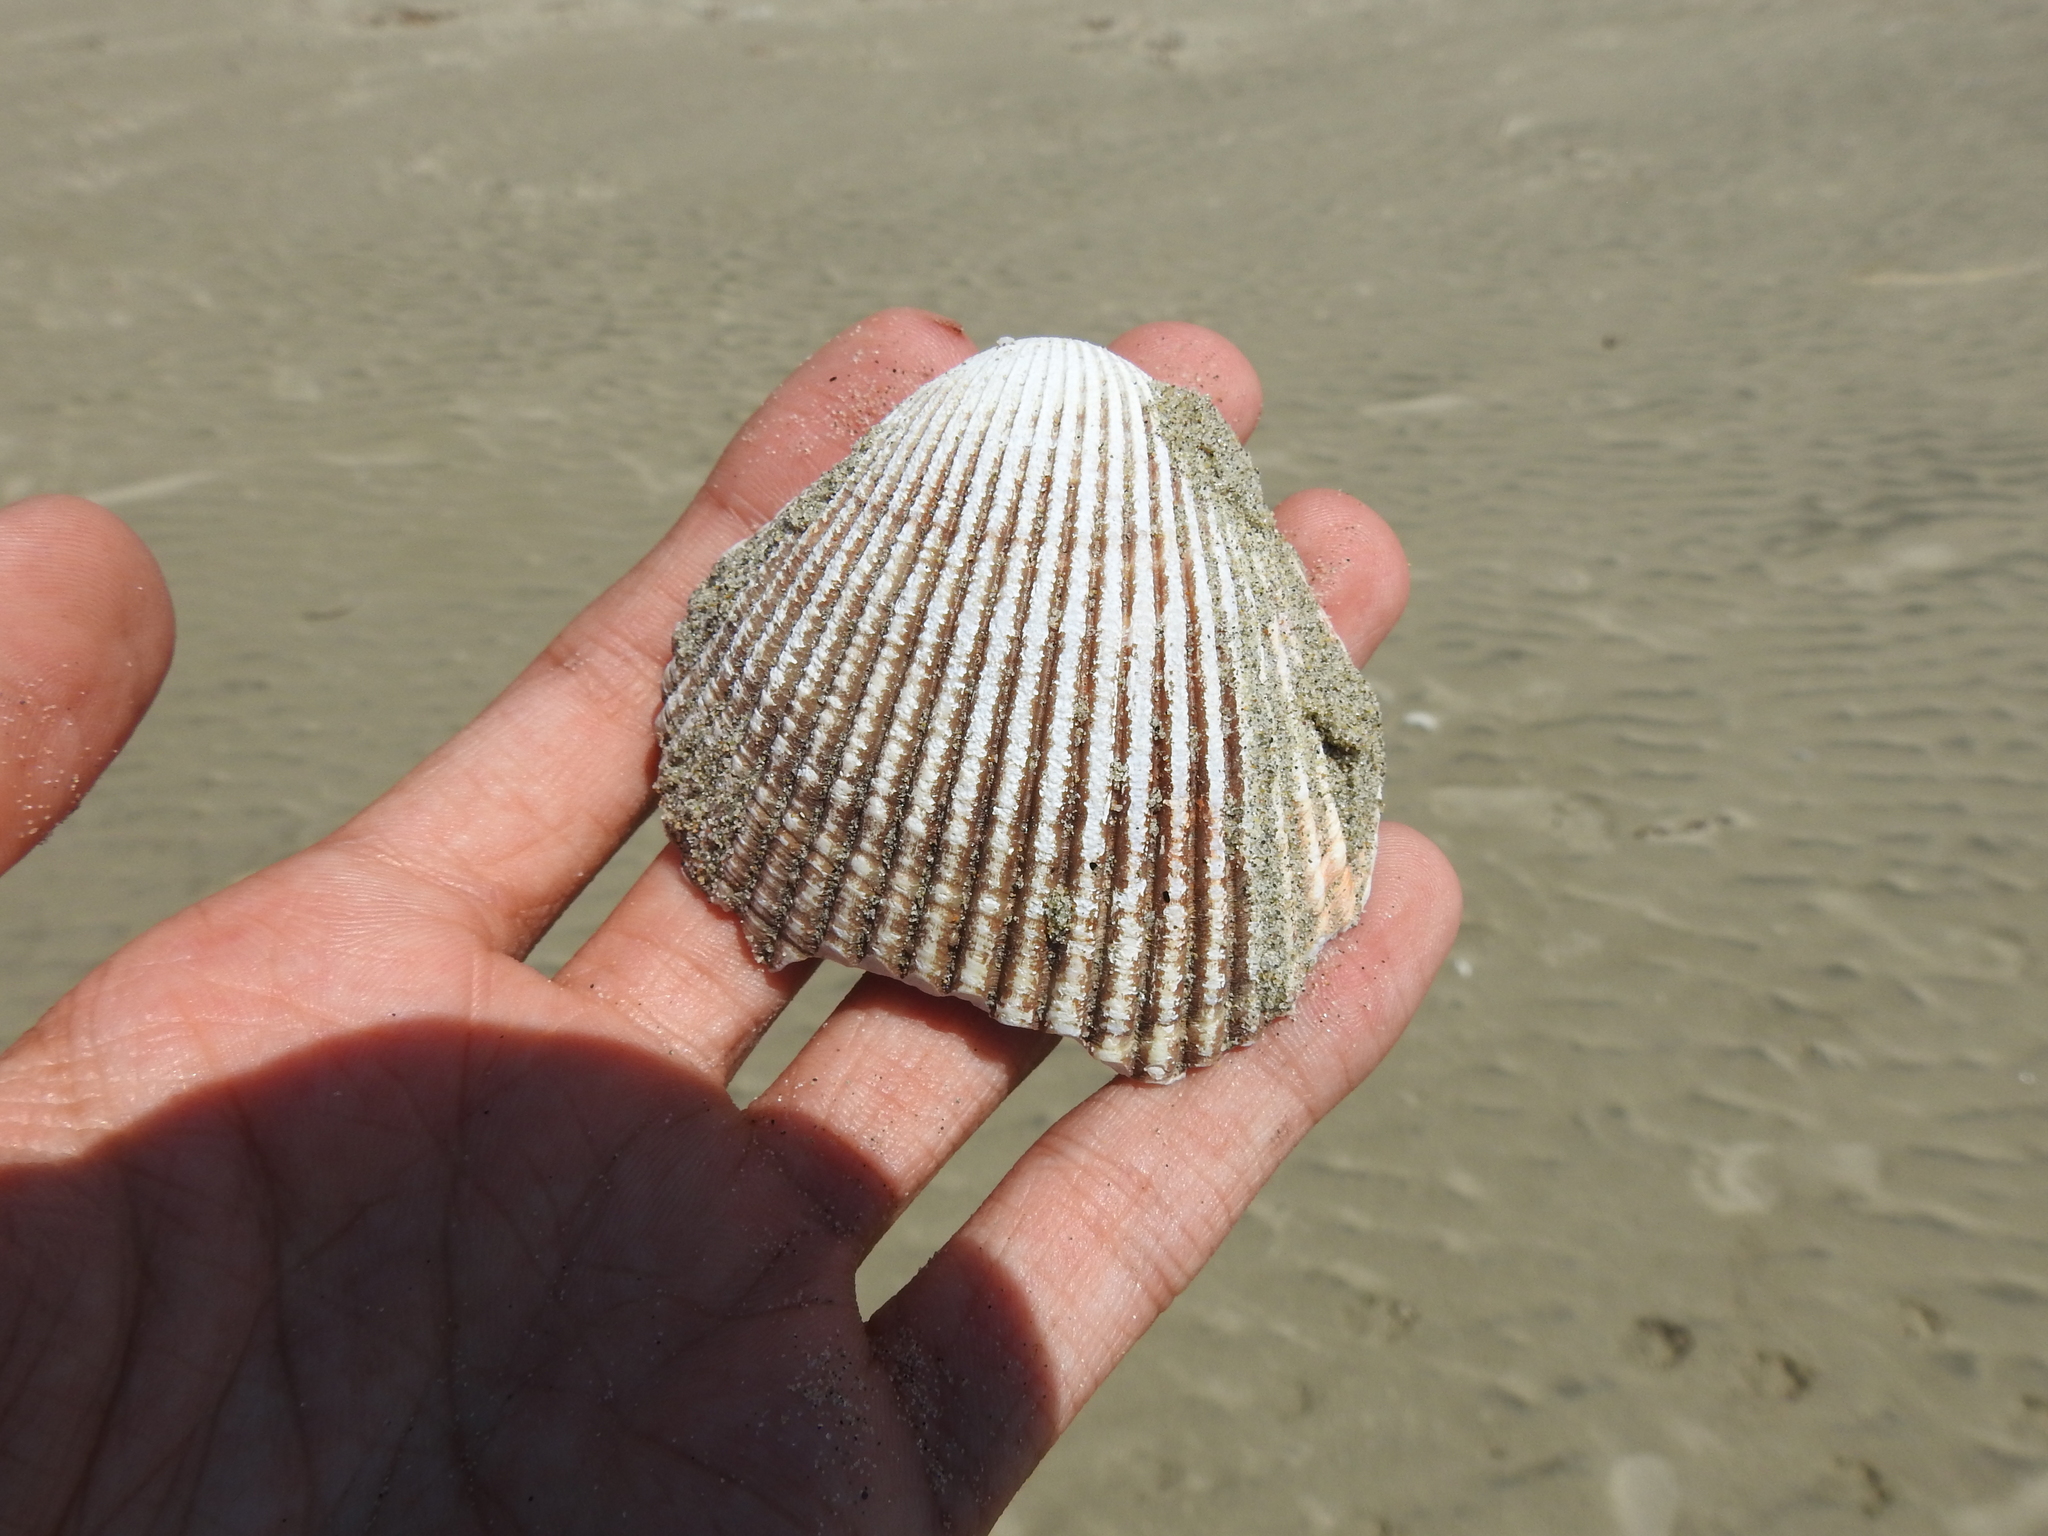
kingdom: Animalia
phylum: Mollusca
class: Bivalvia
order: Cardiida
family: Cardiidae
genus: Clinocardium
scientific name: Clinocardium nuttallii
